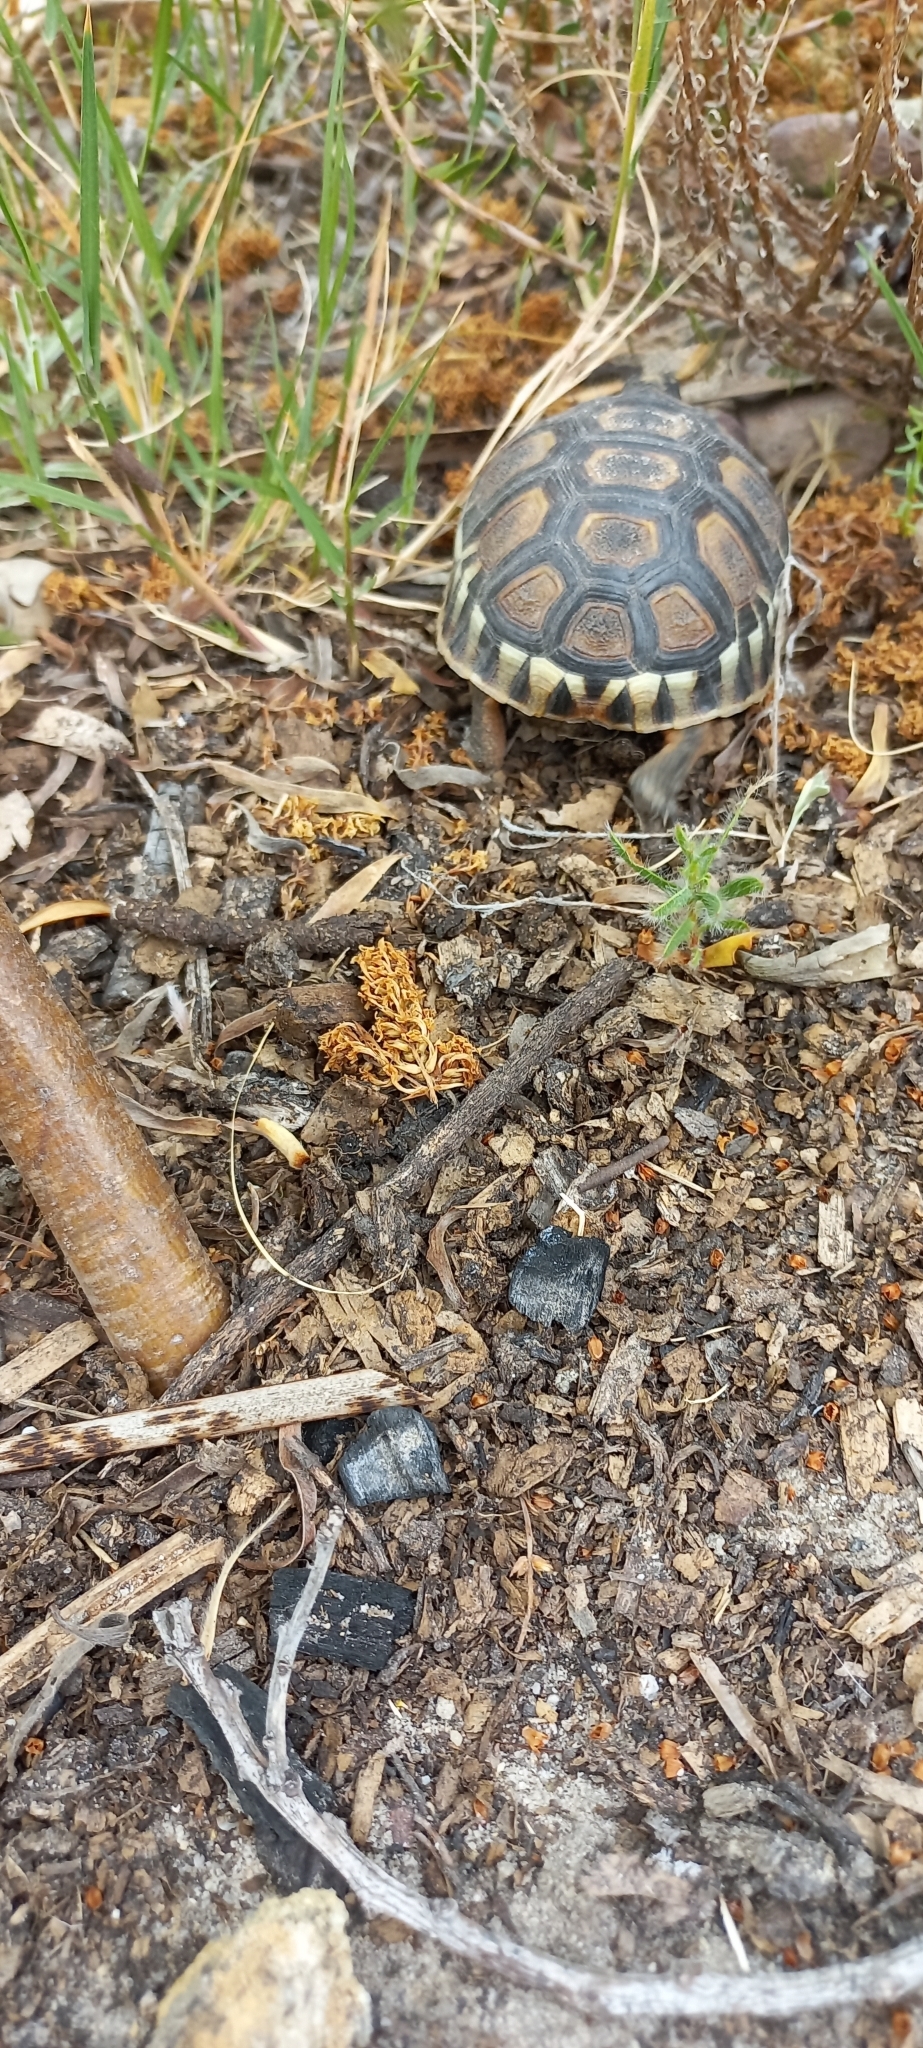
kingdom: Animalia
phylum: Chordata
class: Testudines
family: Testudinidae
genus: Chersina
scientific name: Chersina angulata
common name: South african bowsprit tortoise
